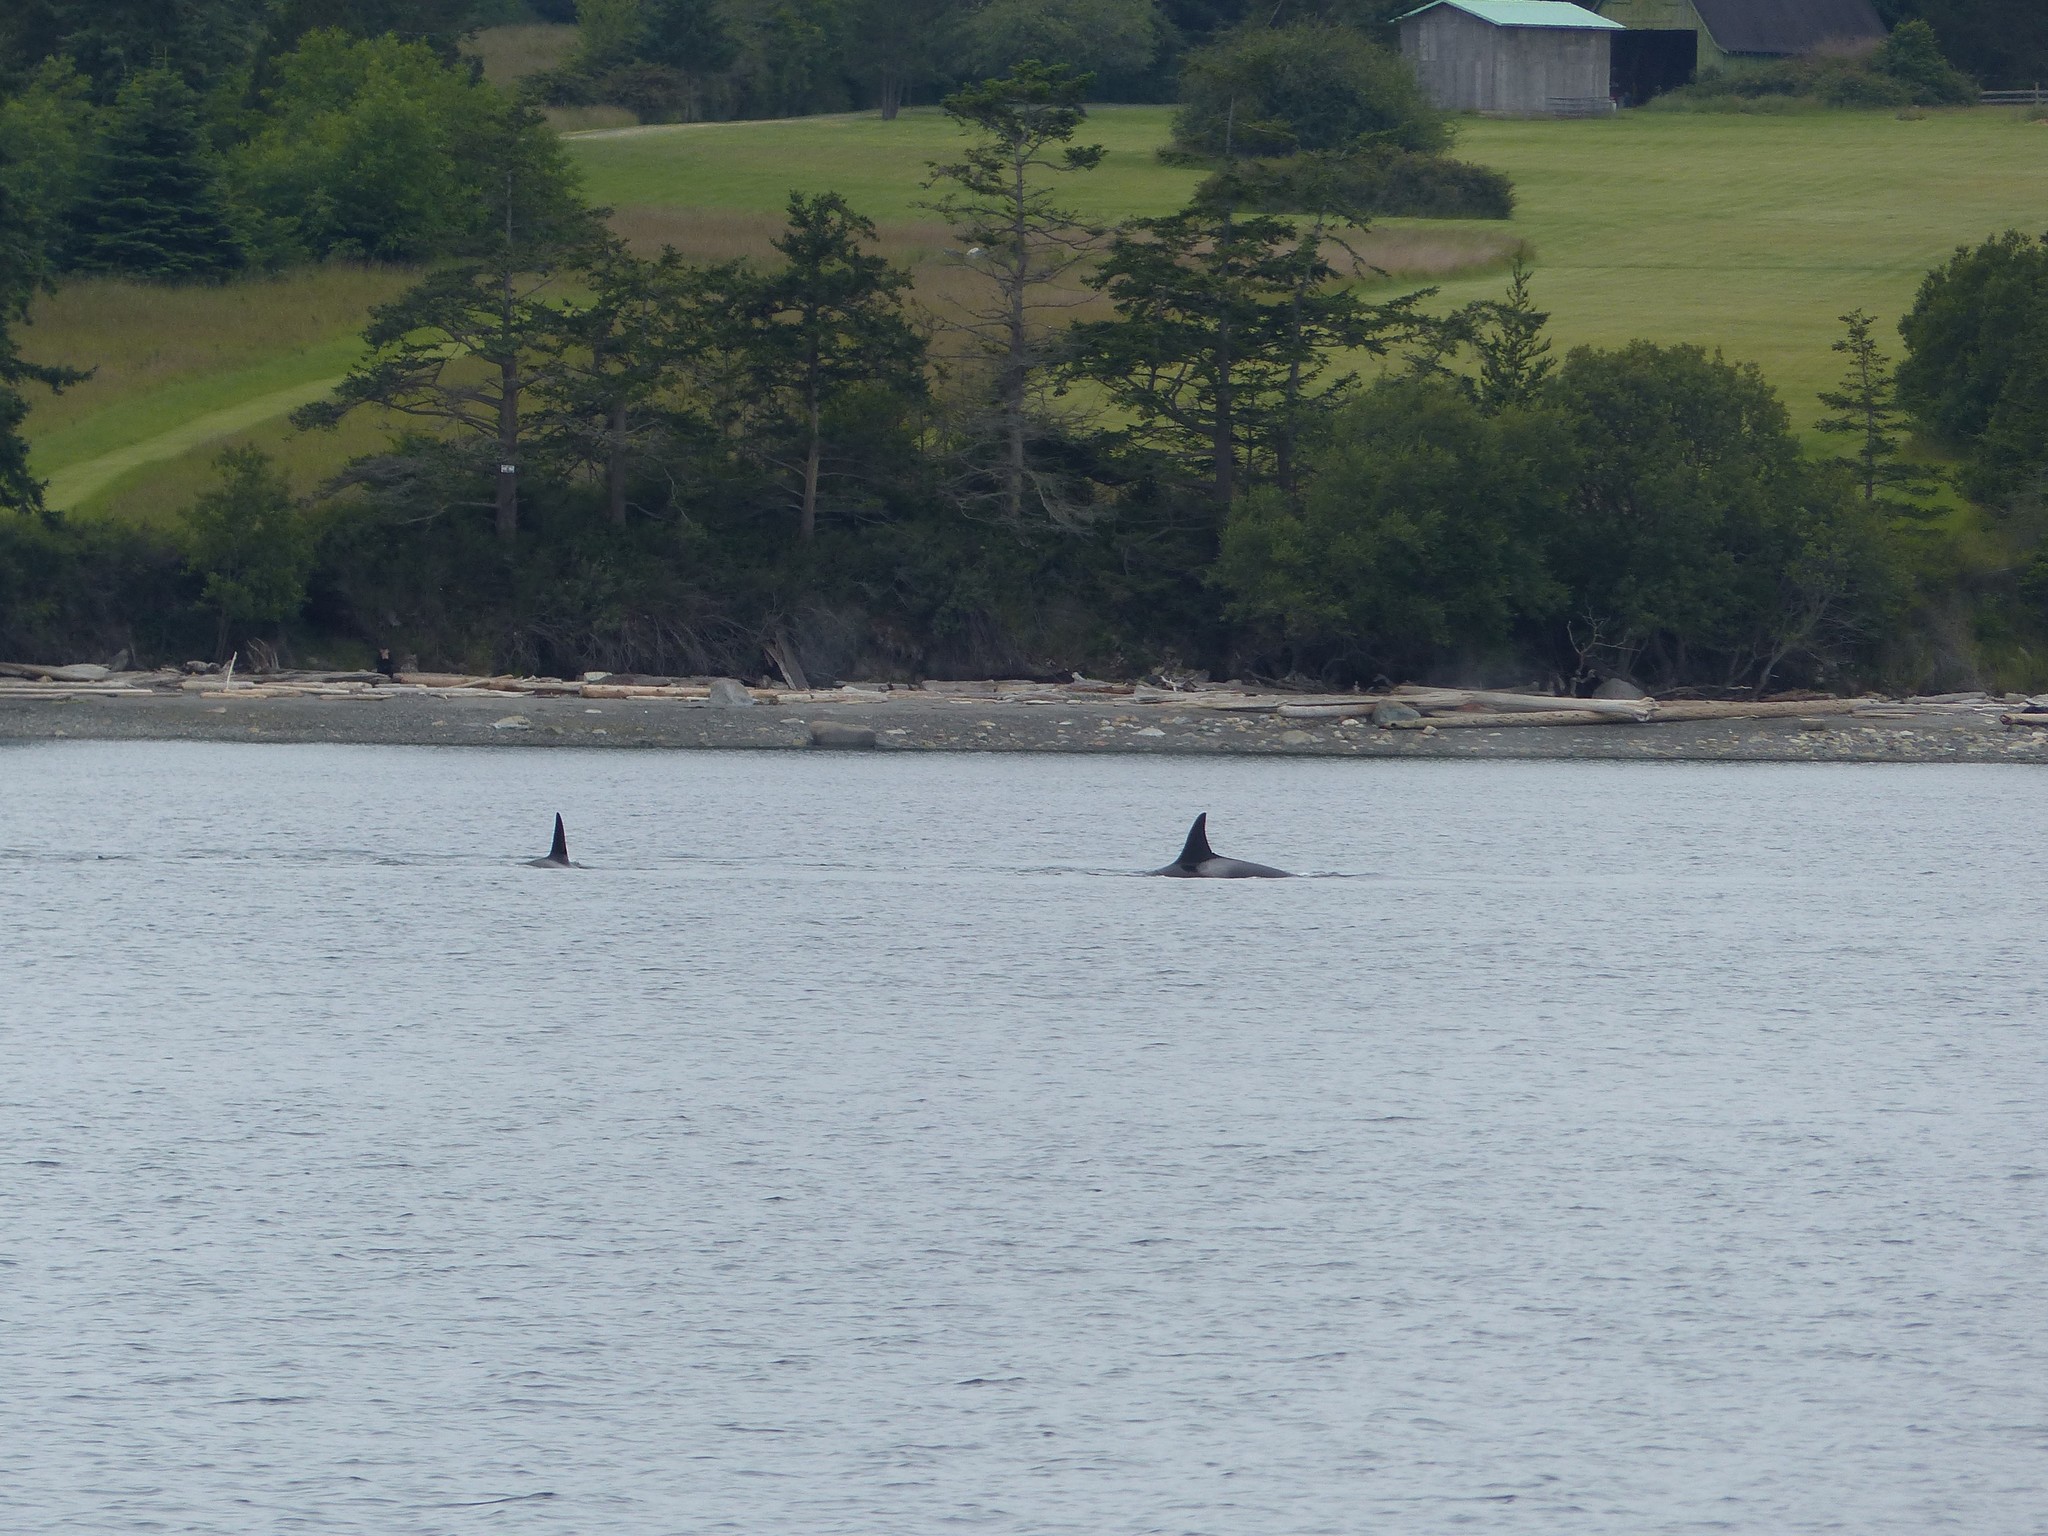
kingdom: Animalia
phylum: Chordata
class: Mammalia
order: Cetacea
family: Delphinidae
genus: Orcinus
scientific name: Orcinus orca
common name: Killer whale
